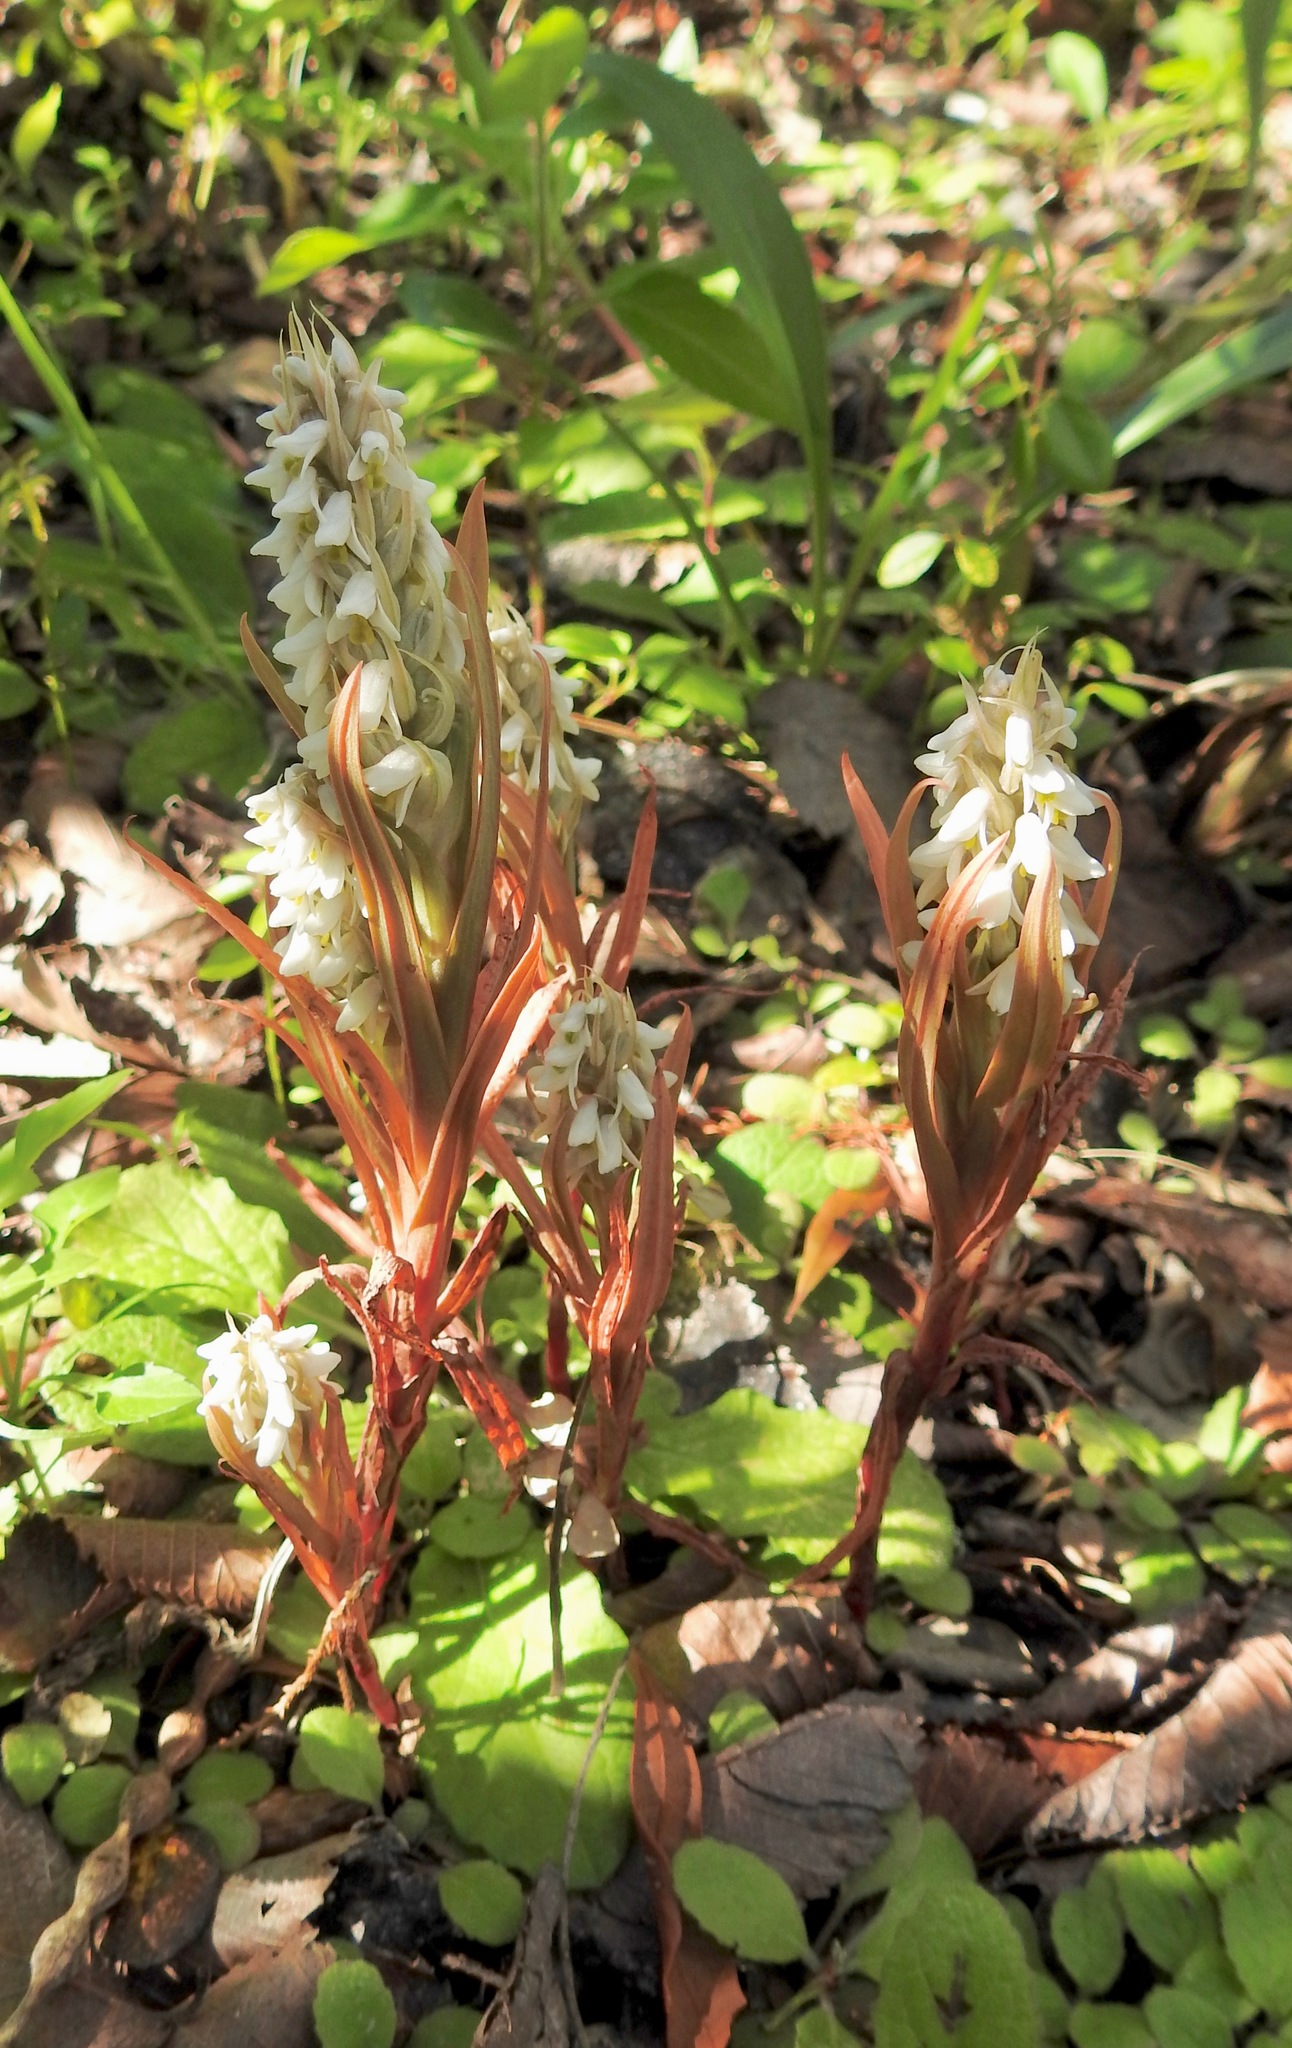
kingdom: Plantae
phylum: Tracheophyta
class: Liliopsida
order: Asparagales
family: Orchidaceae
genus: Zeuxine
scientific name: Zeuxine strateumatica
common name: Soldier's orchid
